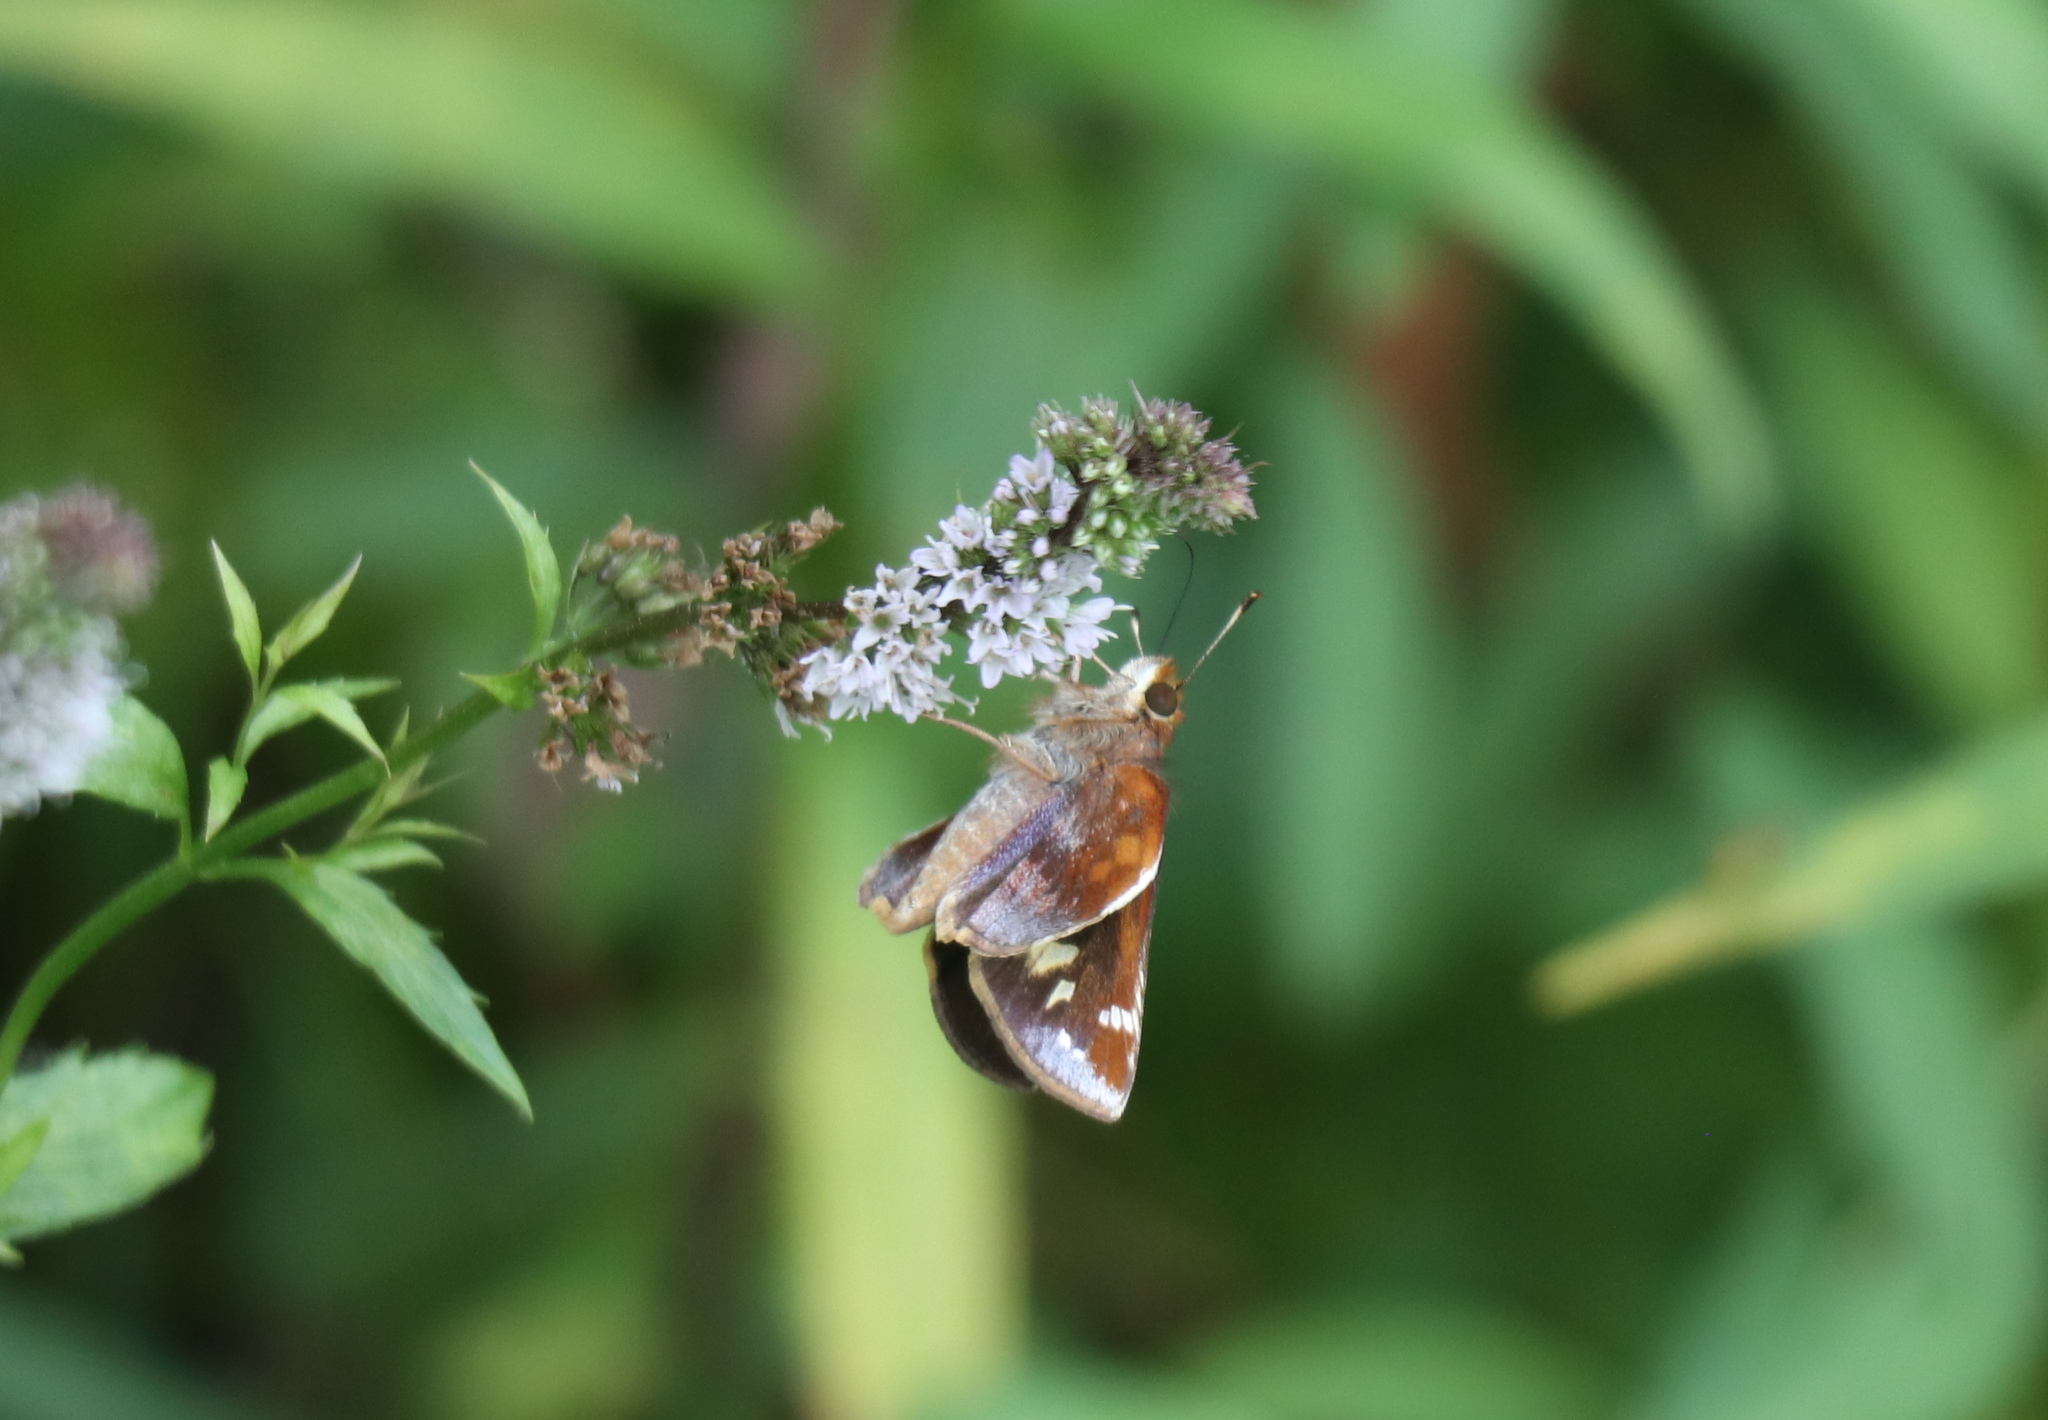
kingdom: Animalia
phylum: Arthropoda
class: Insecta
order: Lepidoptera
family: Hesperiidae
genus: Lon
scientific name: Lon zabulon
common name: Zabulon skipper
